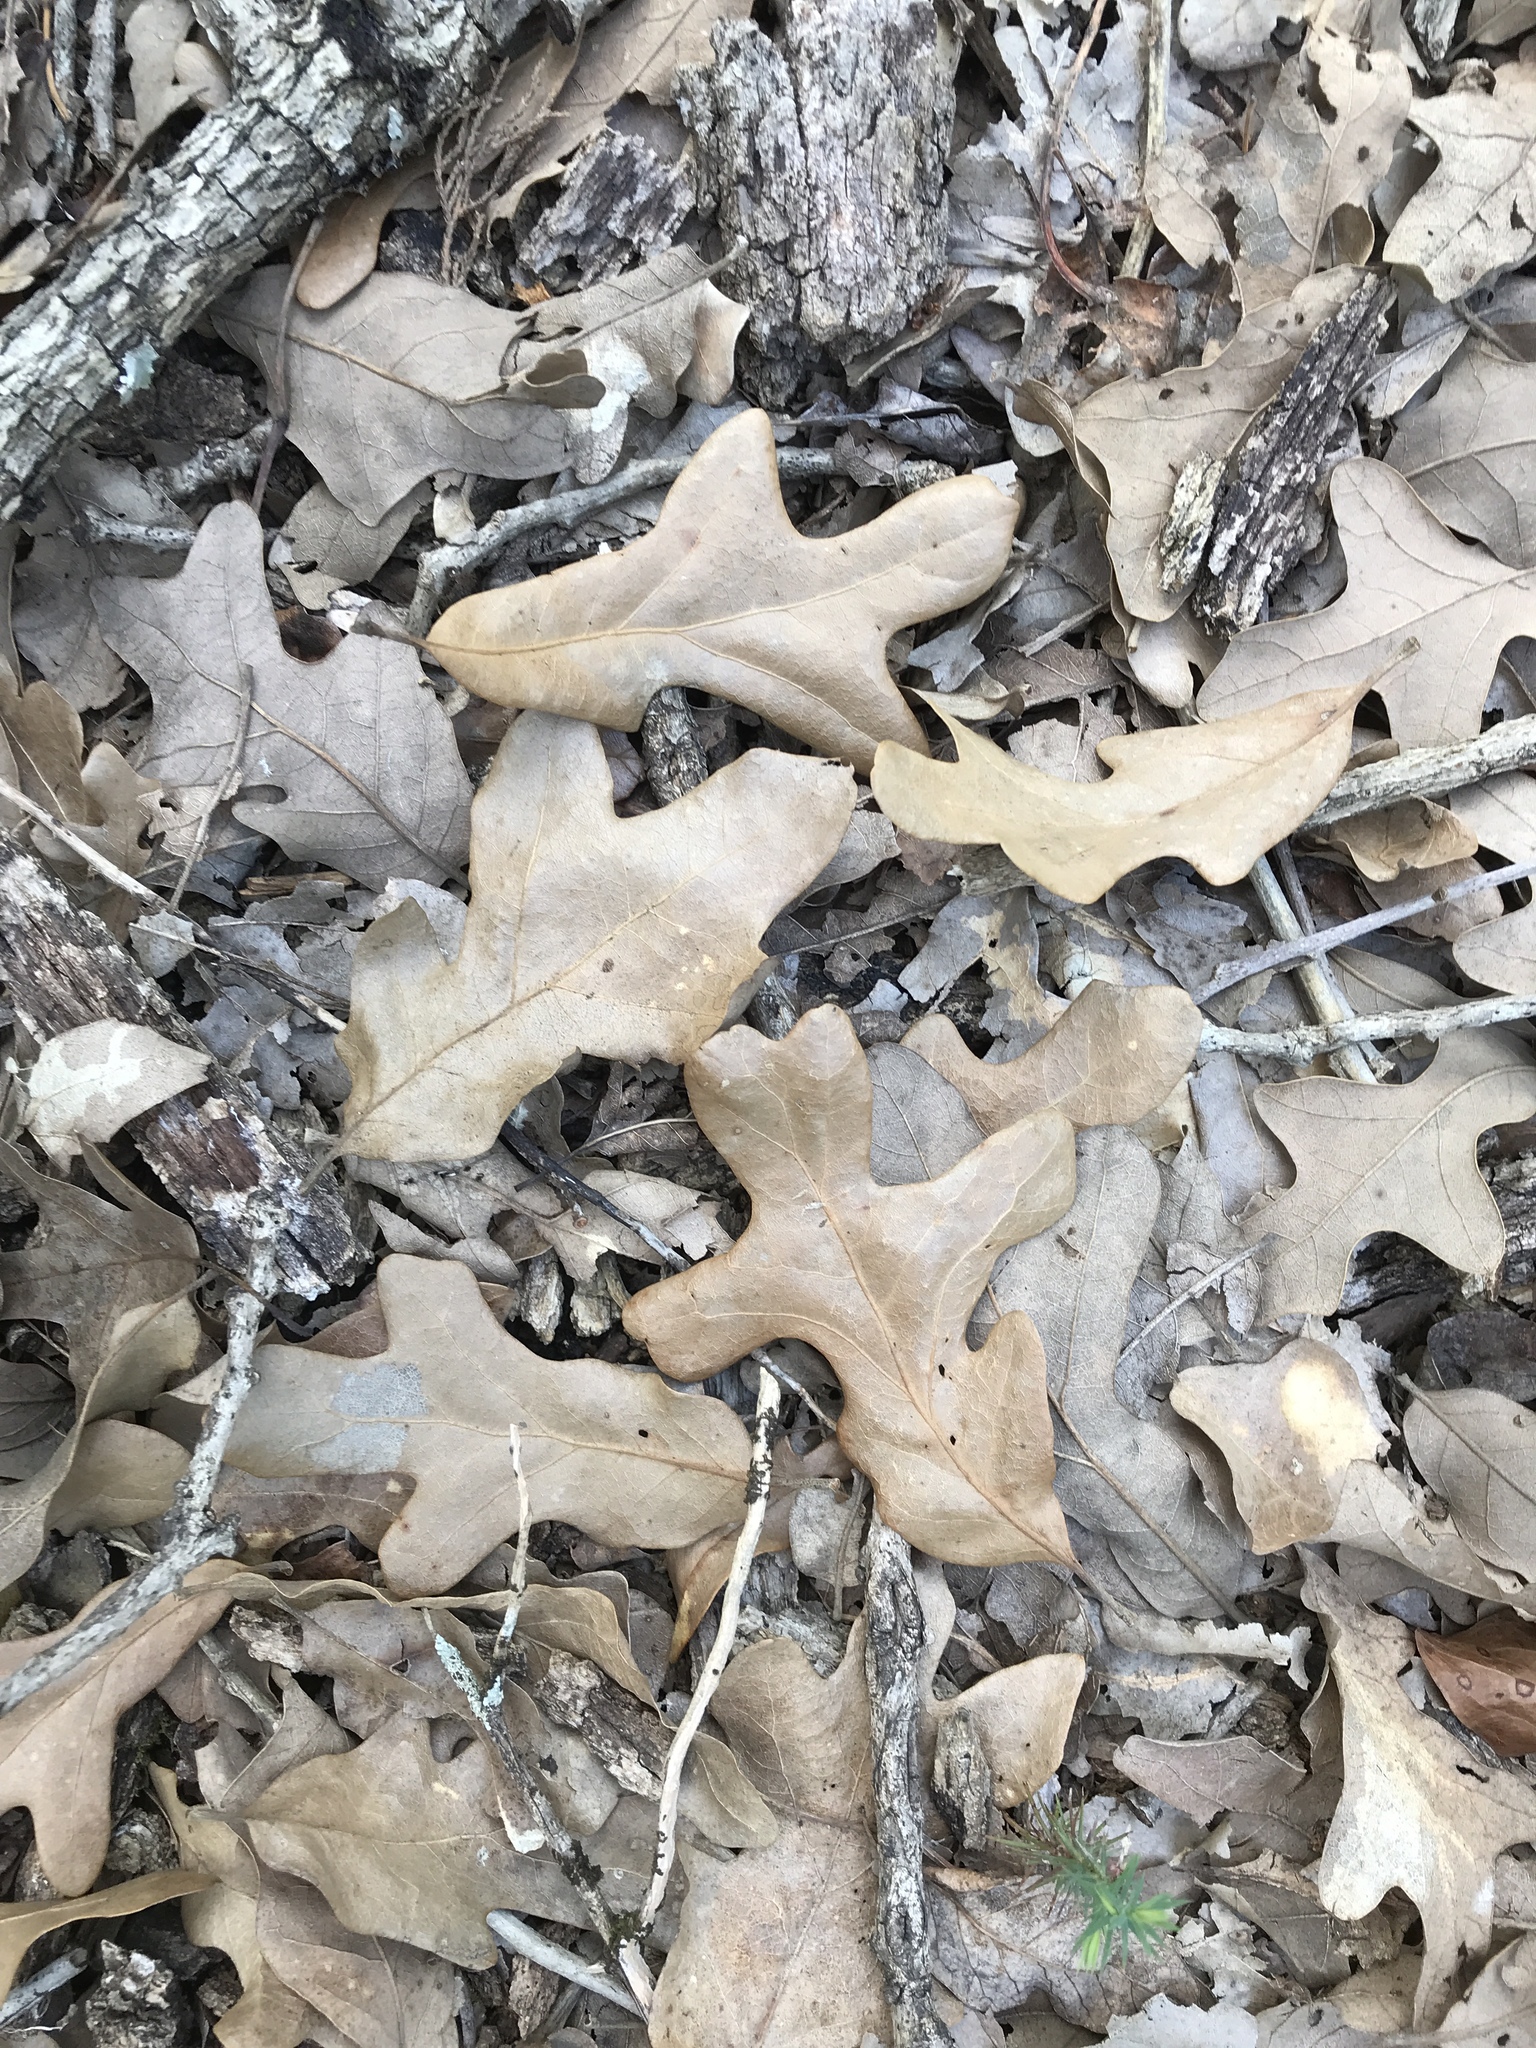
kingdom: Plantae
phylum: Tracheophyta
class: Magnoliopsida
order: Fagales
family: Fagaceae
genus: Quercus
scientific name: Quercus stellata
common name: Post oak
